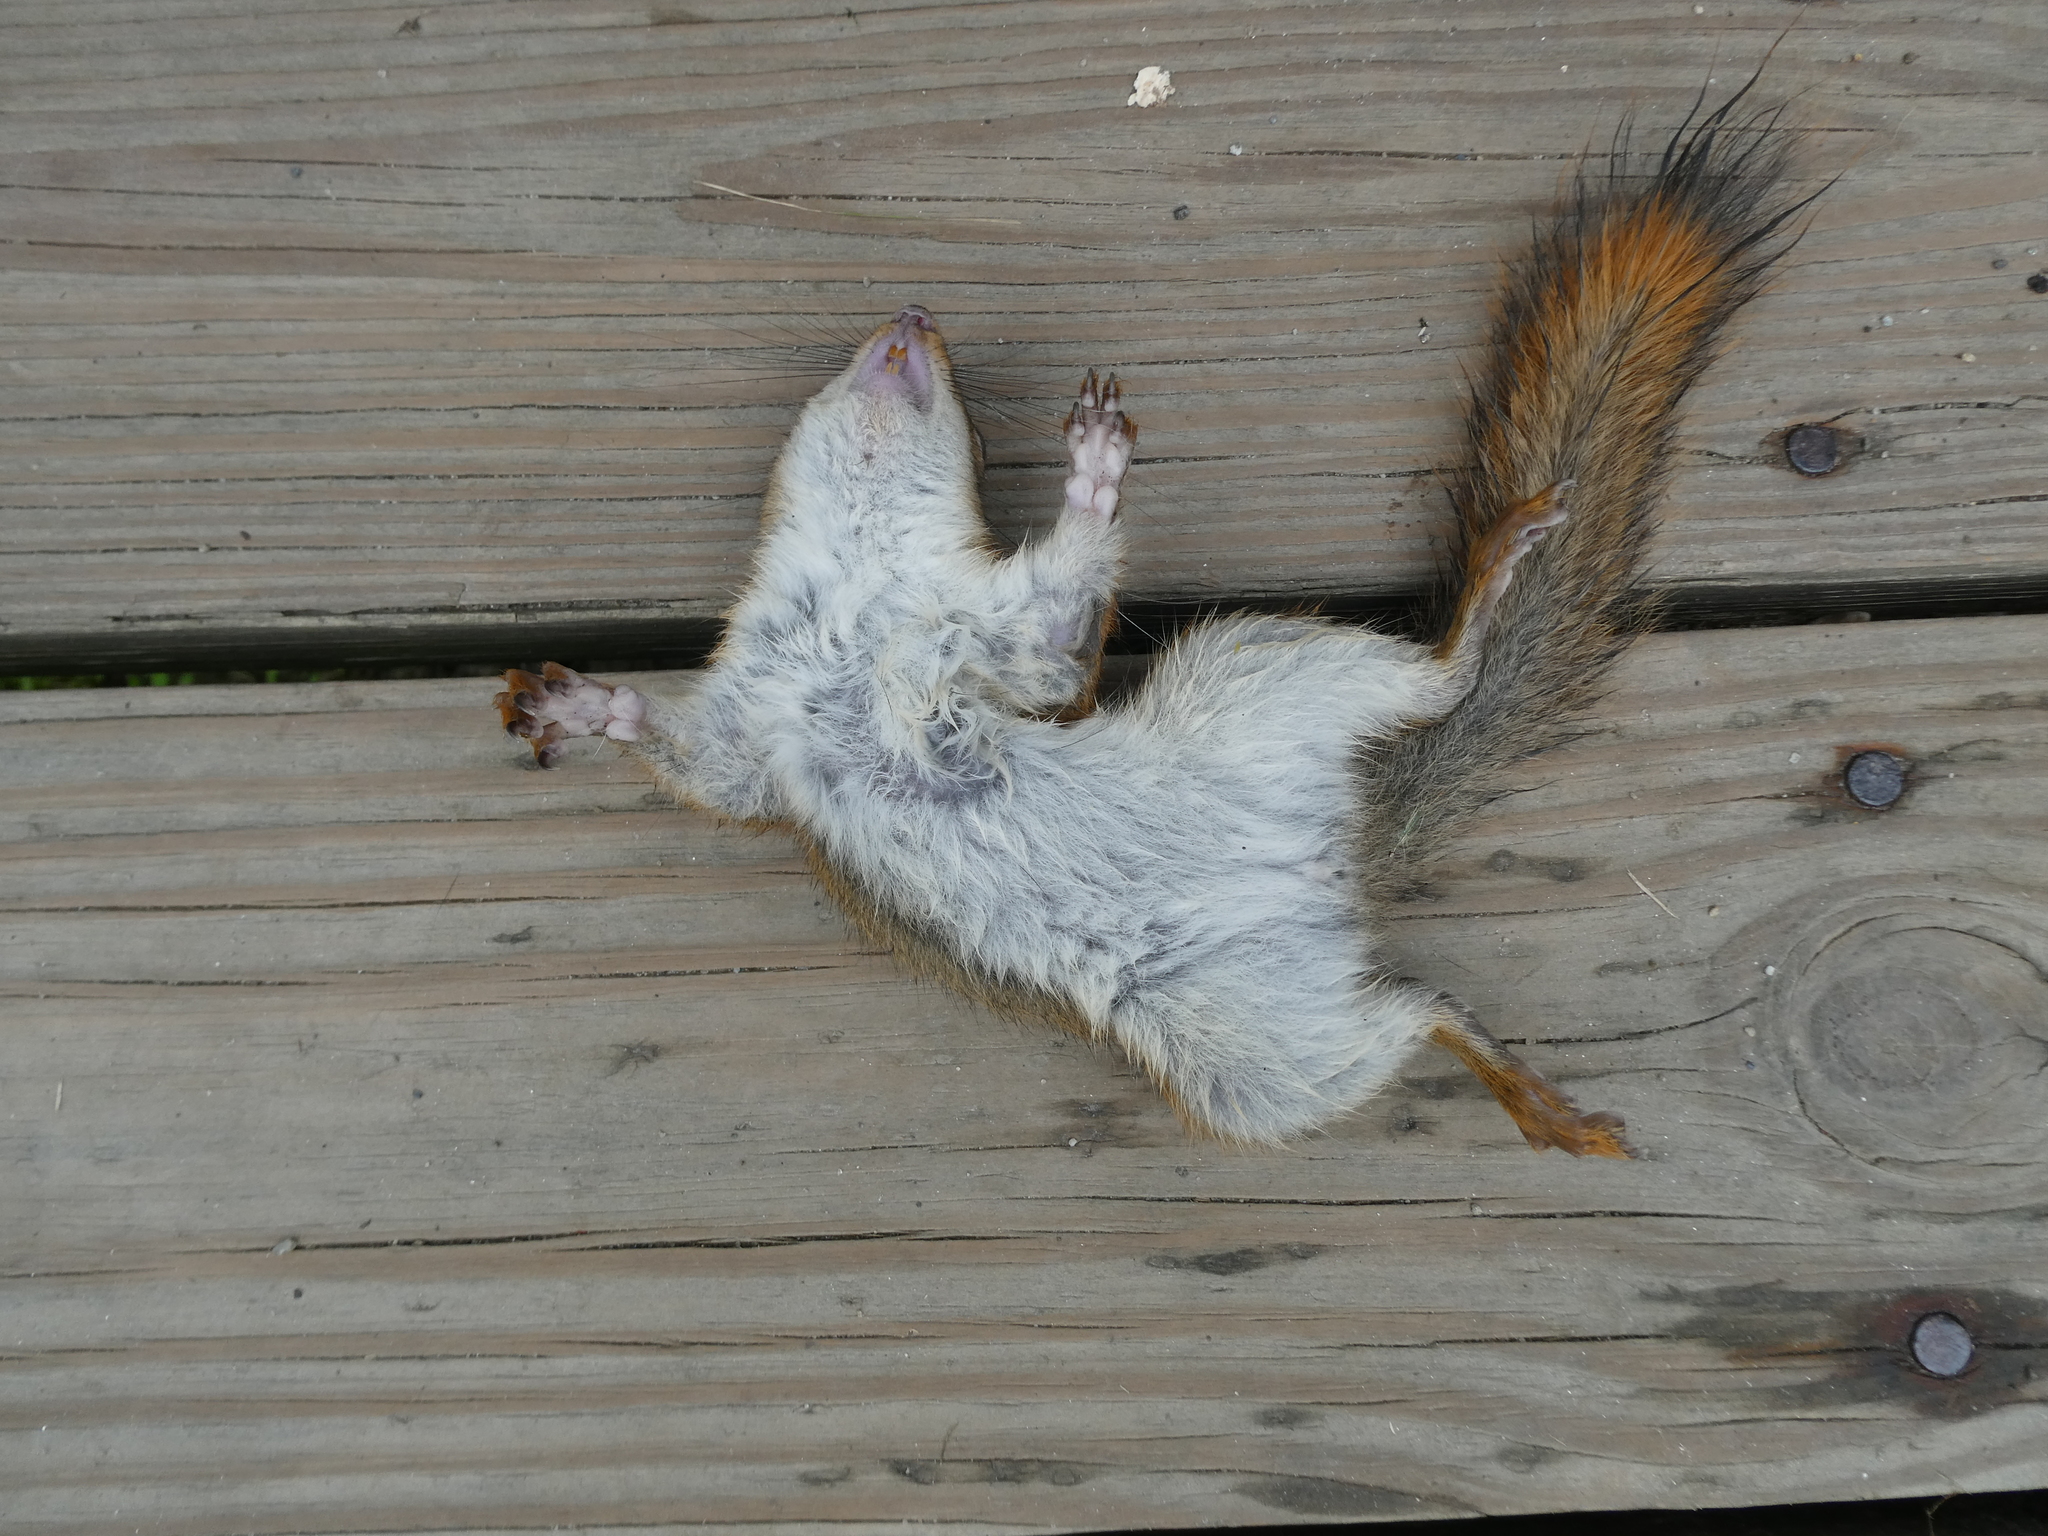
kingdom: Animalia
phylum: Chordata
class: Mammalia
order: Rodentia
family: Sciuridae
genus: Tamiasciurus
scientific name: Tamiasciurus hudsonicus
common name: Red squirrel
